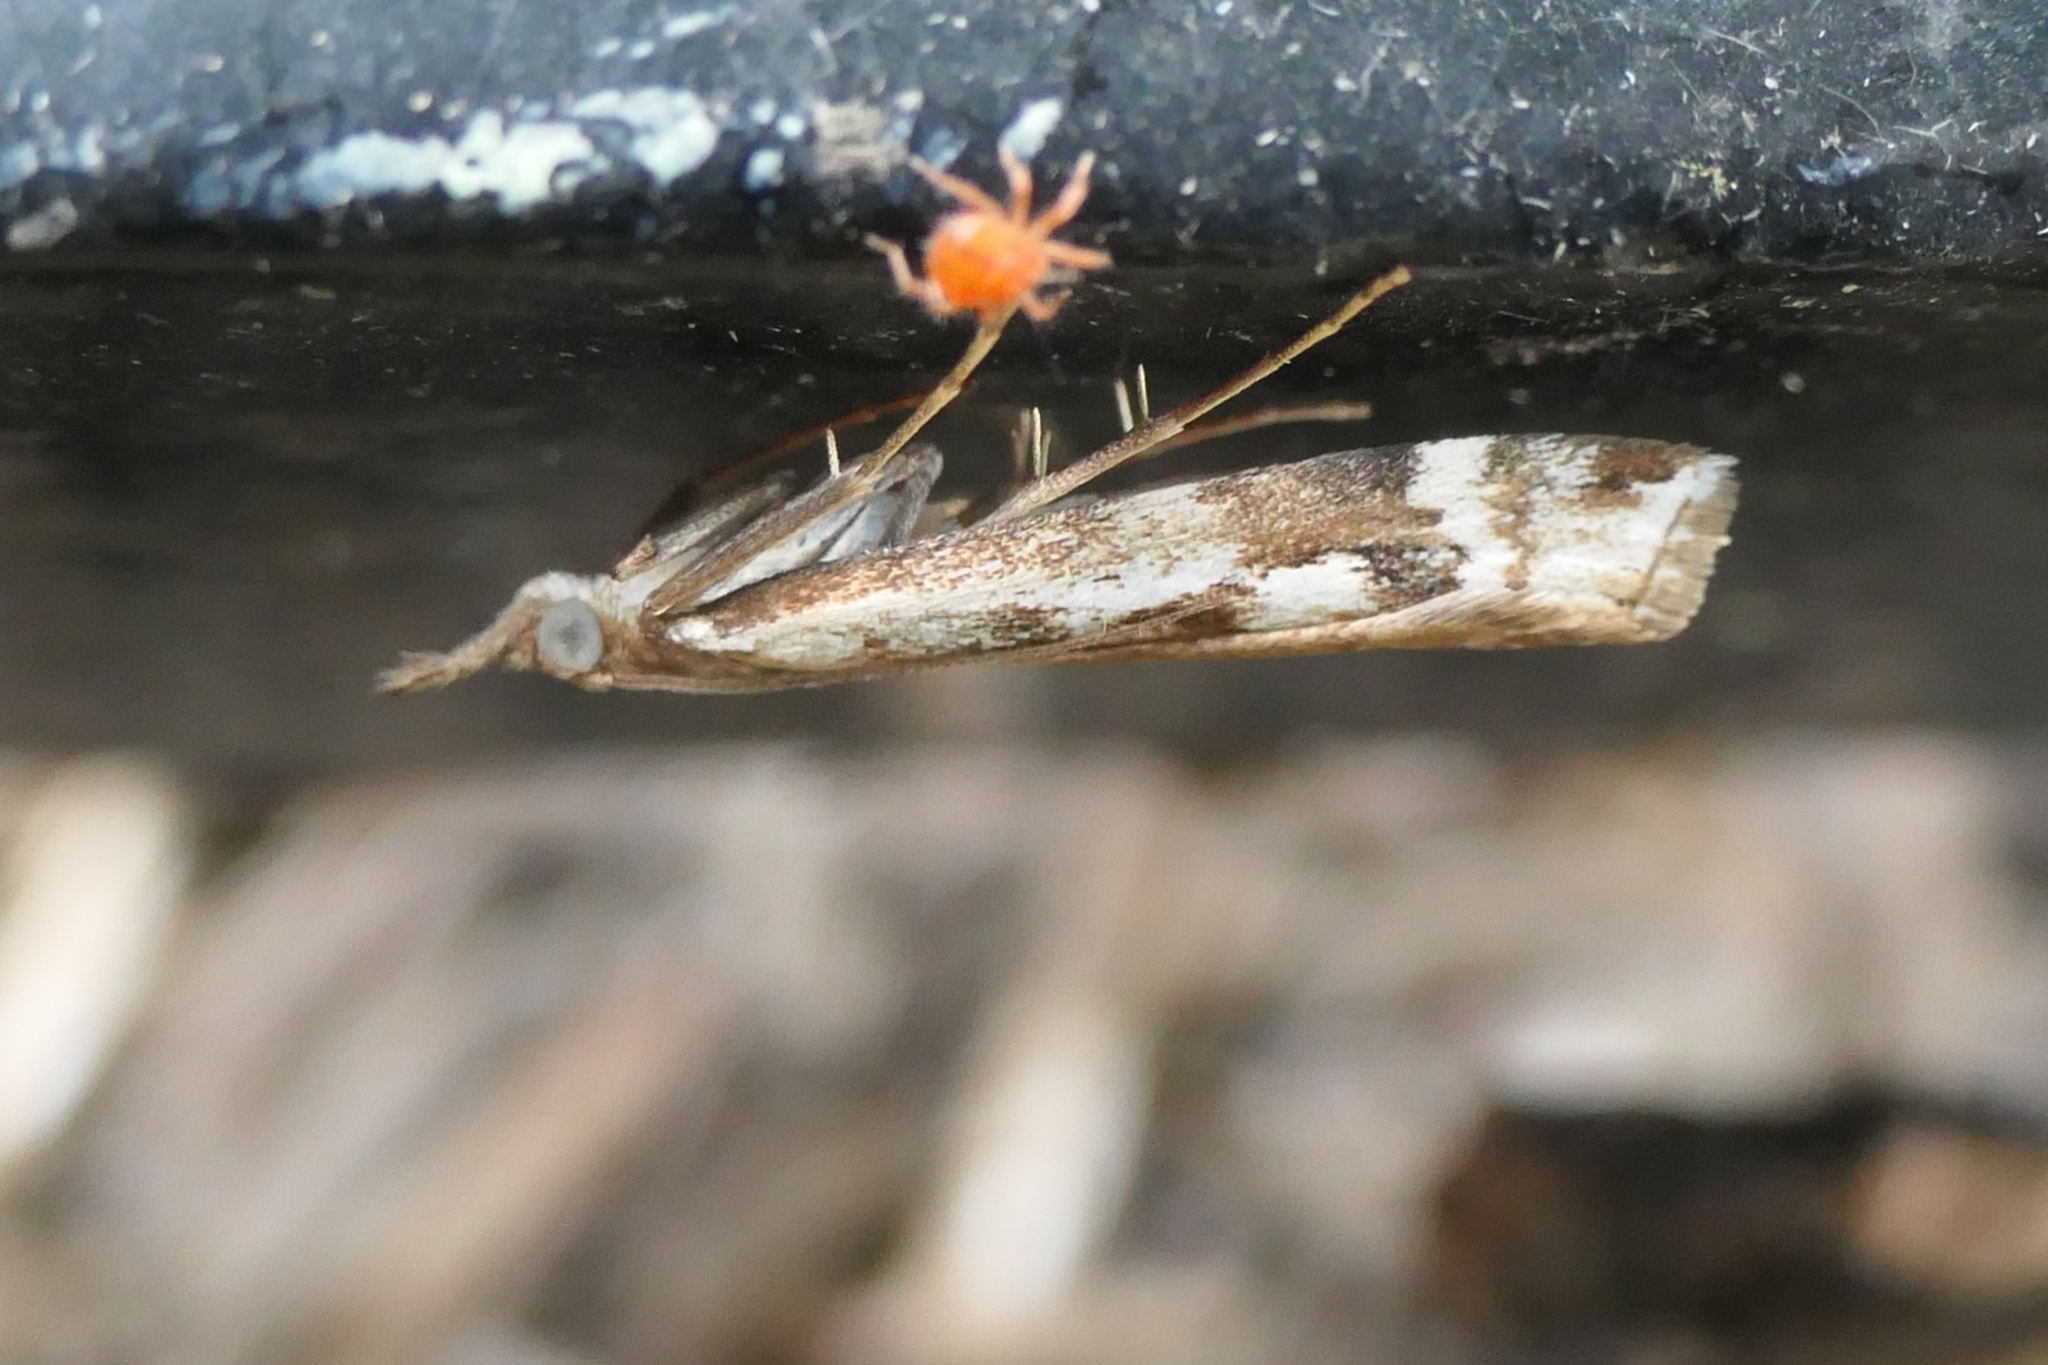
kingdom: Animalia
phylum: Arthropoda
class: Insecta
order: Lepidoptera
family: Crambidae
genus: Orocrambus
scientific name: Orocrambus vulgaris
